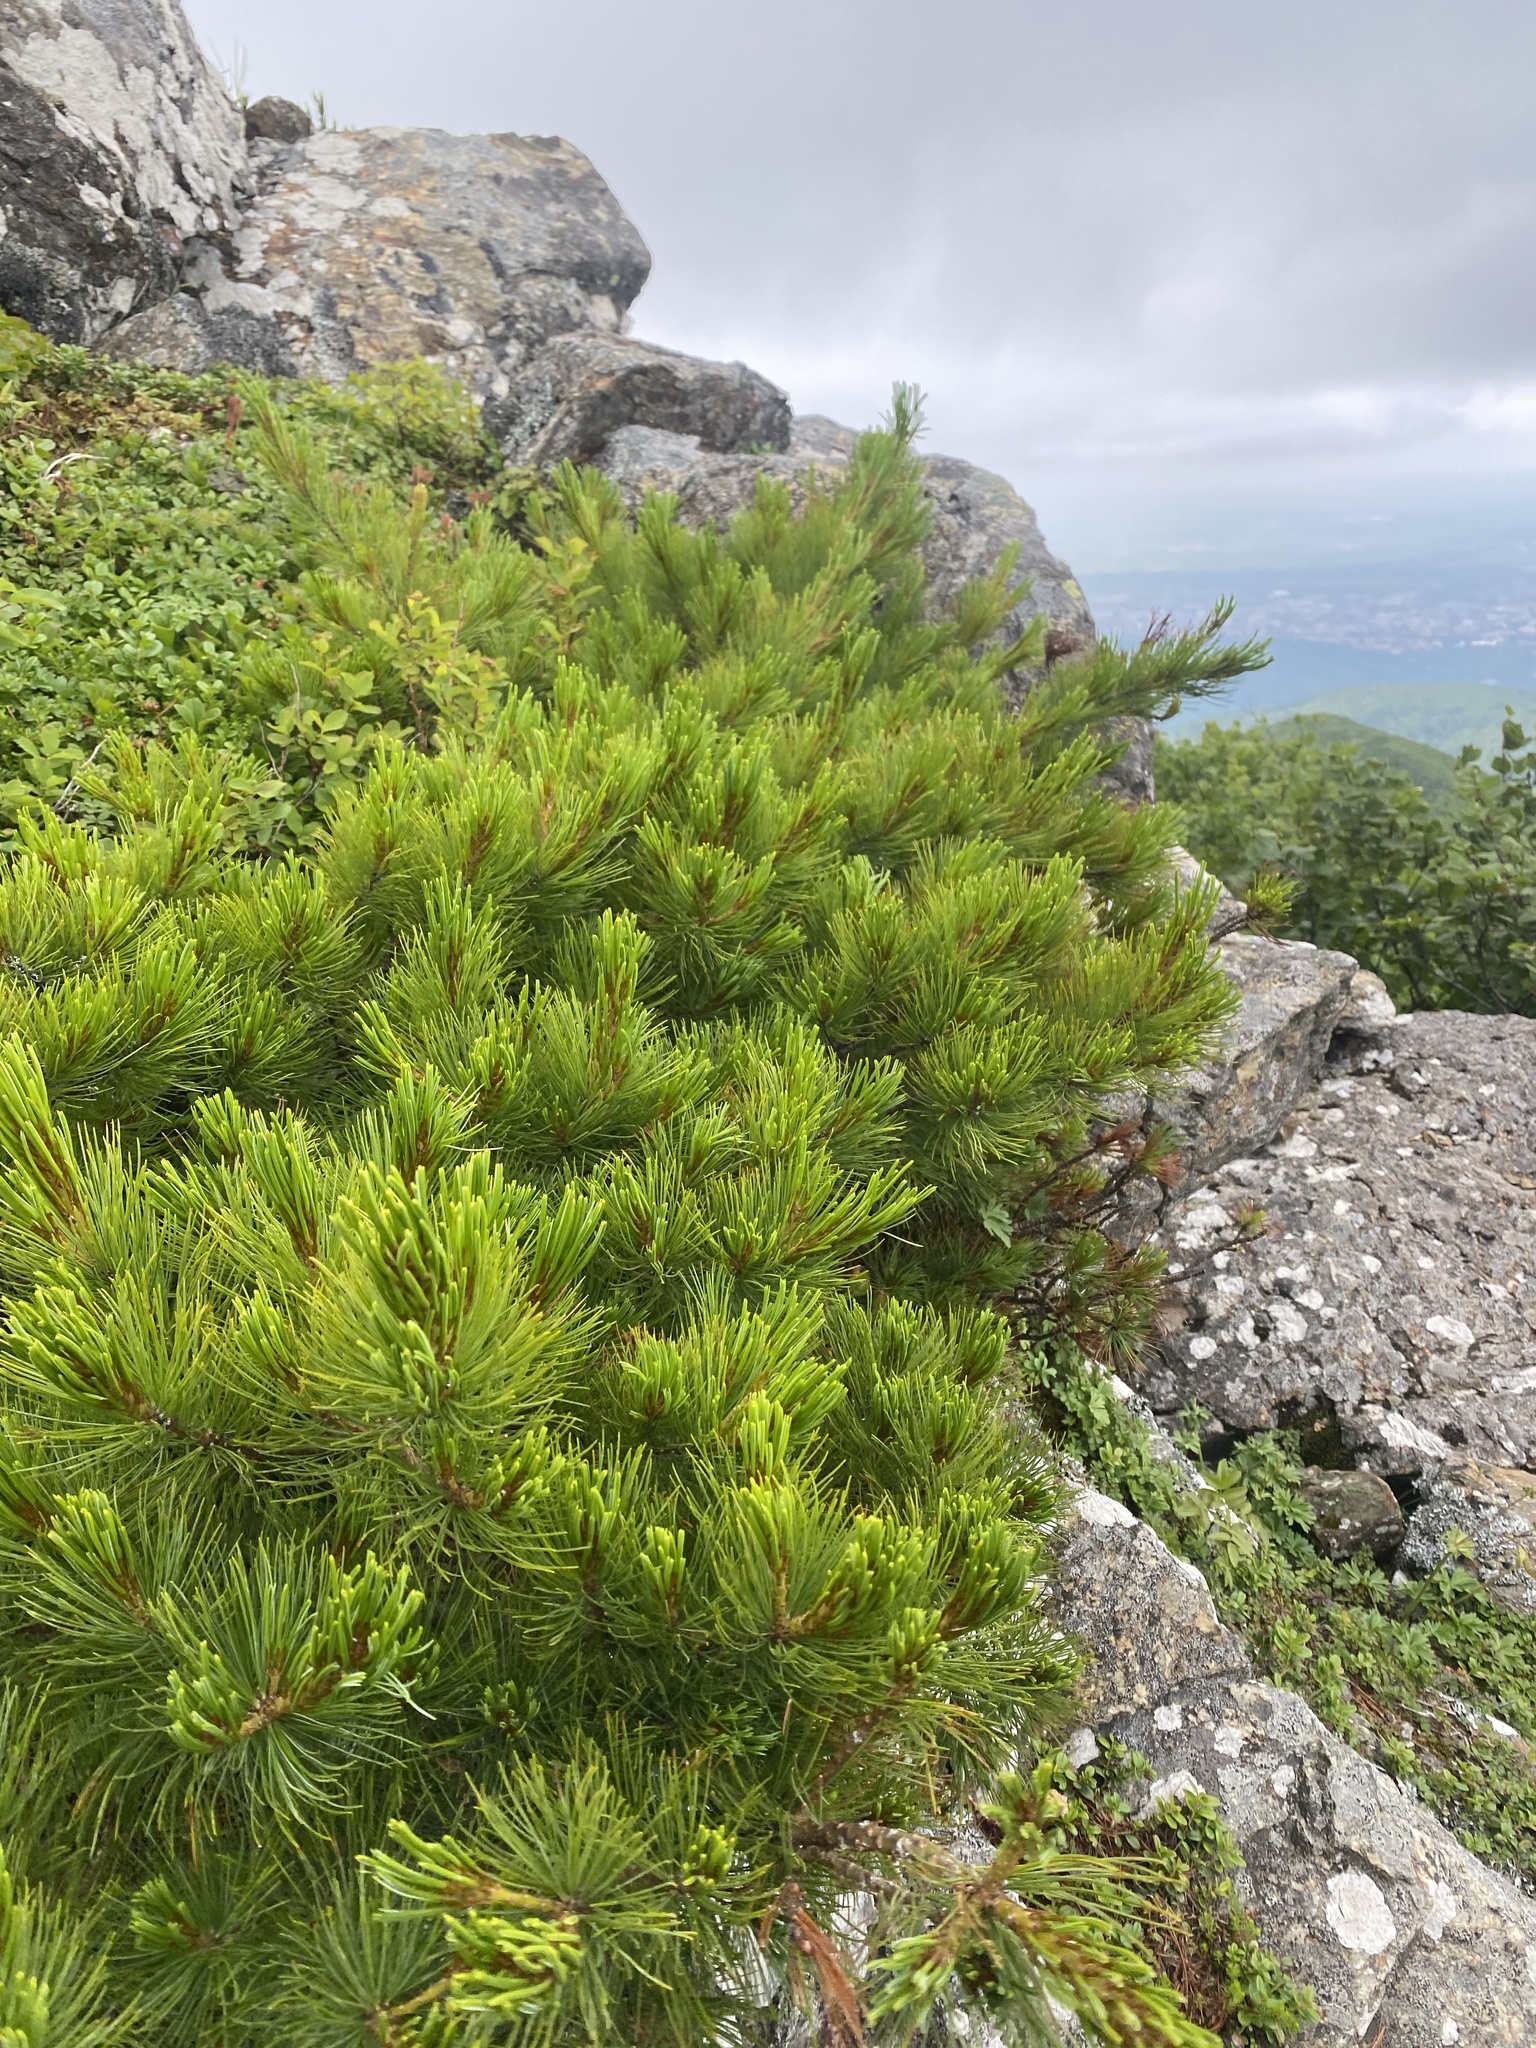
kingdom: Plantae
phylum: Tracheophyta
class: Pinopsida
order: Pinales
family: Pinaceae
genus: Pinus
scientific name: Pinus pumila
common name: Dwarf siberian pine
